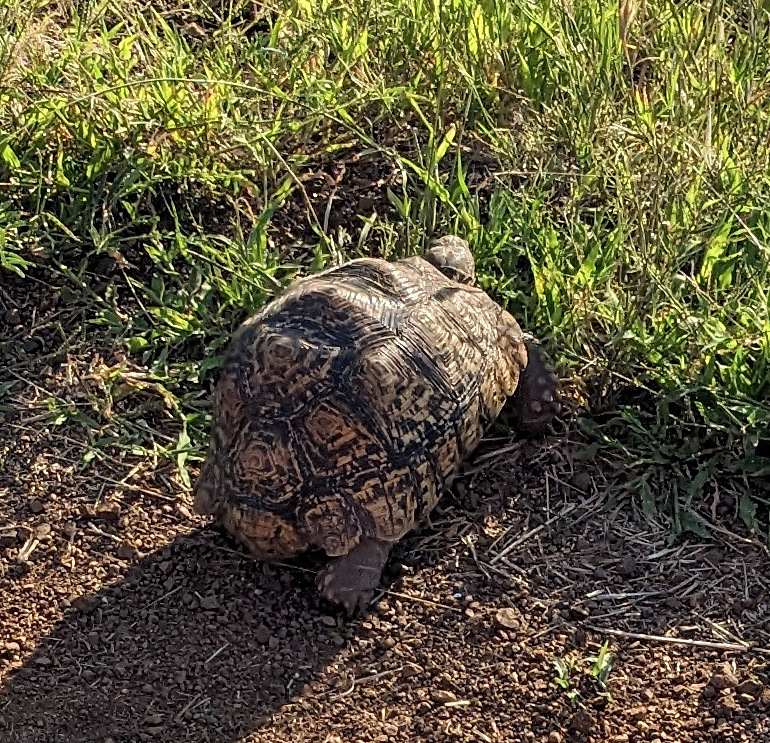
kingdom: Animalia
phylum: Chordata
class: Testudines
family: Testudinidae
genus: Stigmochelys
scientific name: Stigmochelys pardalis
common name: Leopard tortoise
